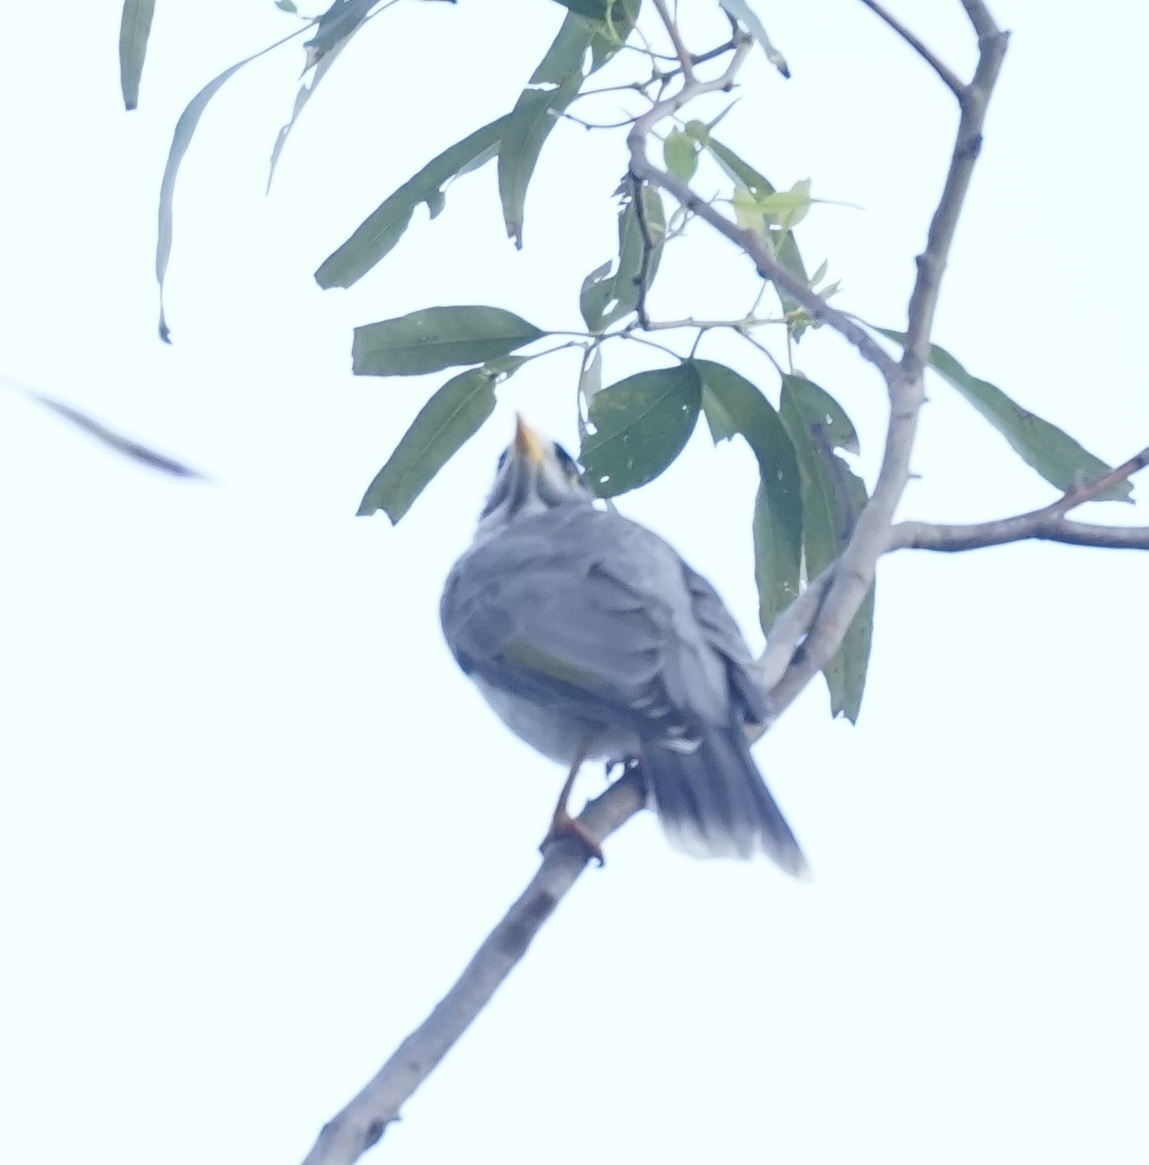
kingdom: Animalia
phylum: Chordata
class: Aves
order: Passeriformes
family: Meliphagidae
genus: Manorina
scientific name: Manorina melanocephala
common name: Noisy miner
